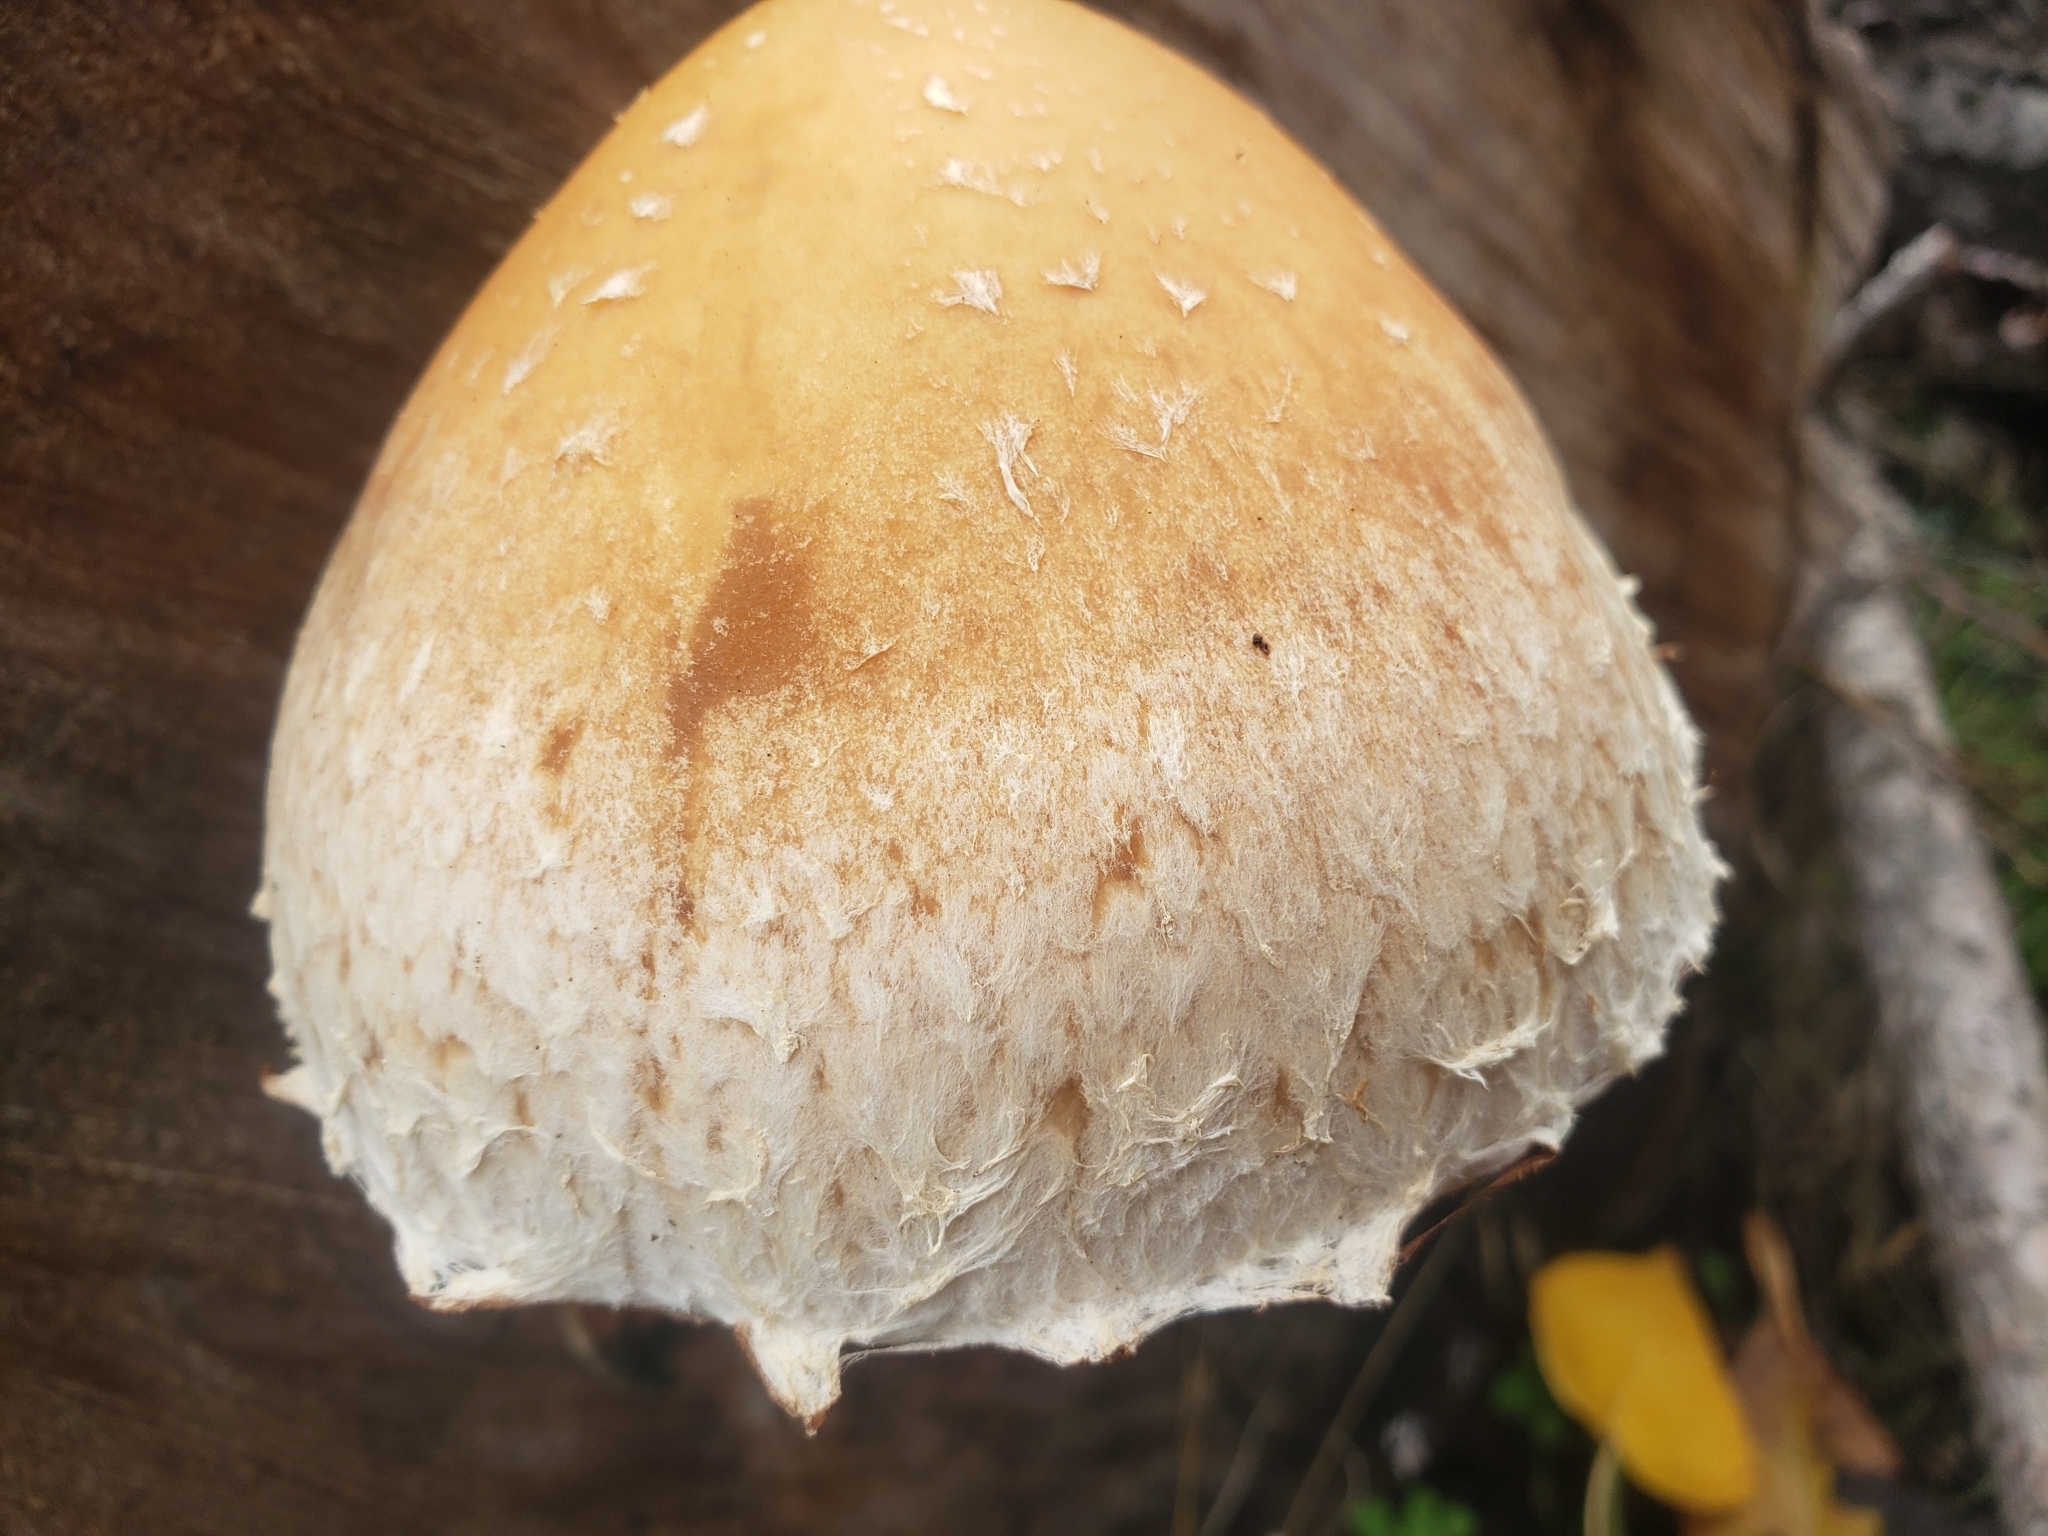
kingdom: Fungi
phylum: Basidiomycota
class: Agaricomycetes
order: Agaricales
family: Strophariaceae
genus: Pholiota
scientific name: Pholiota populnea
